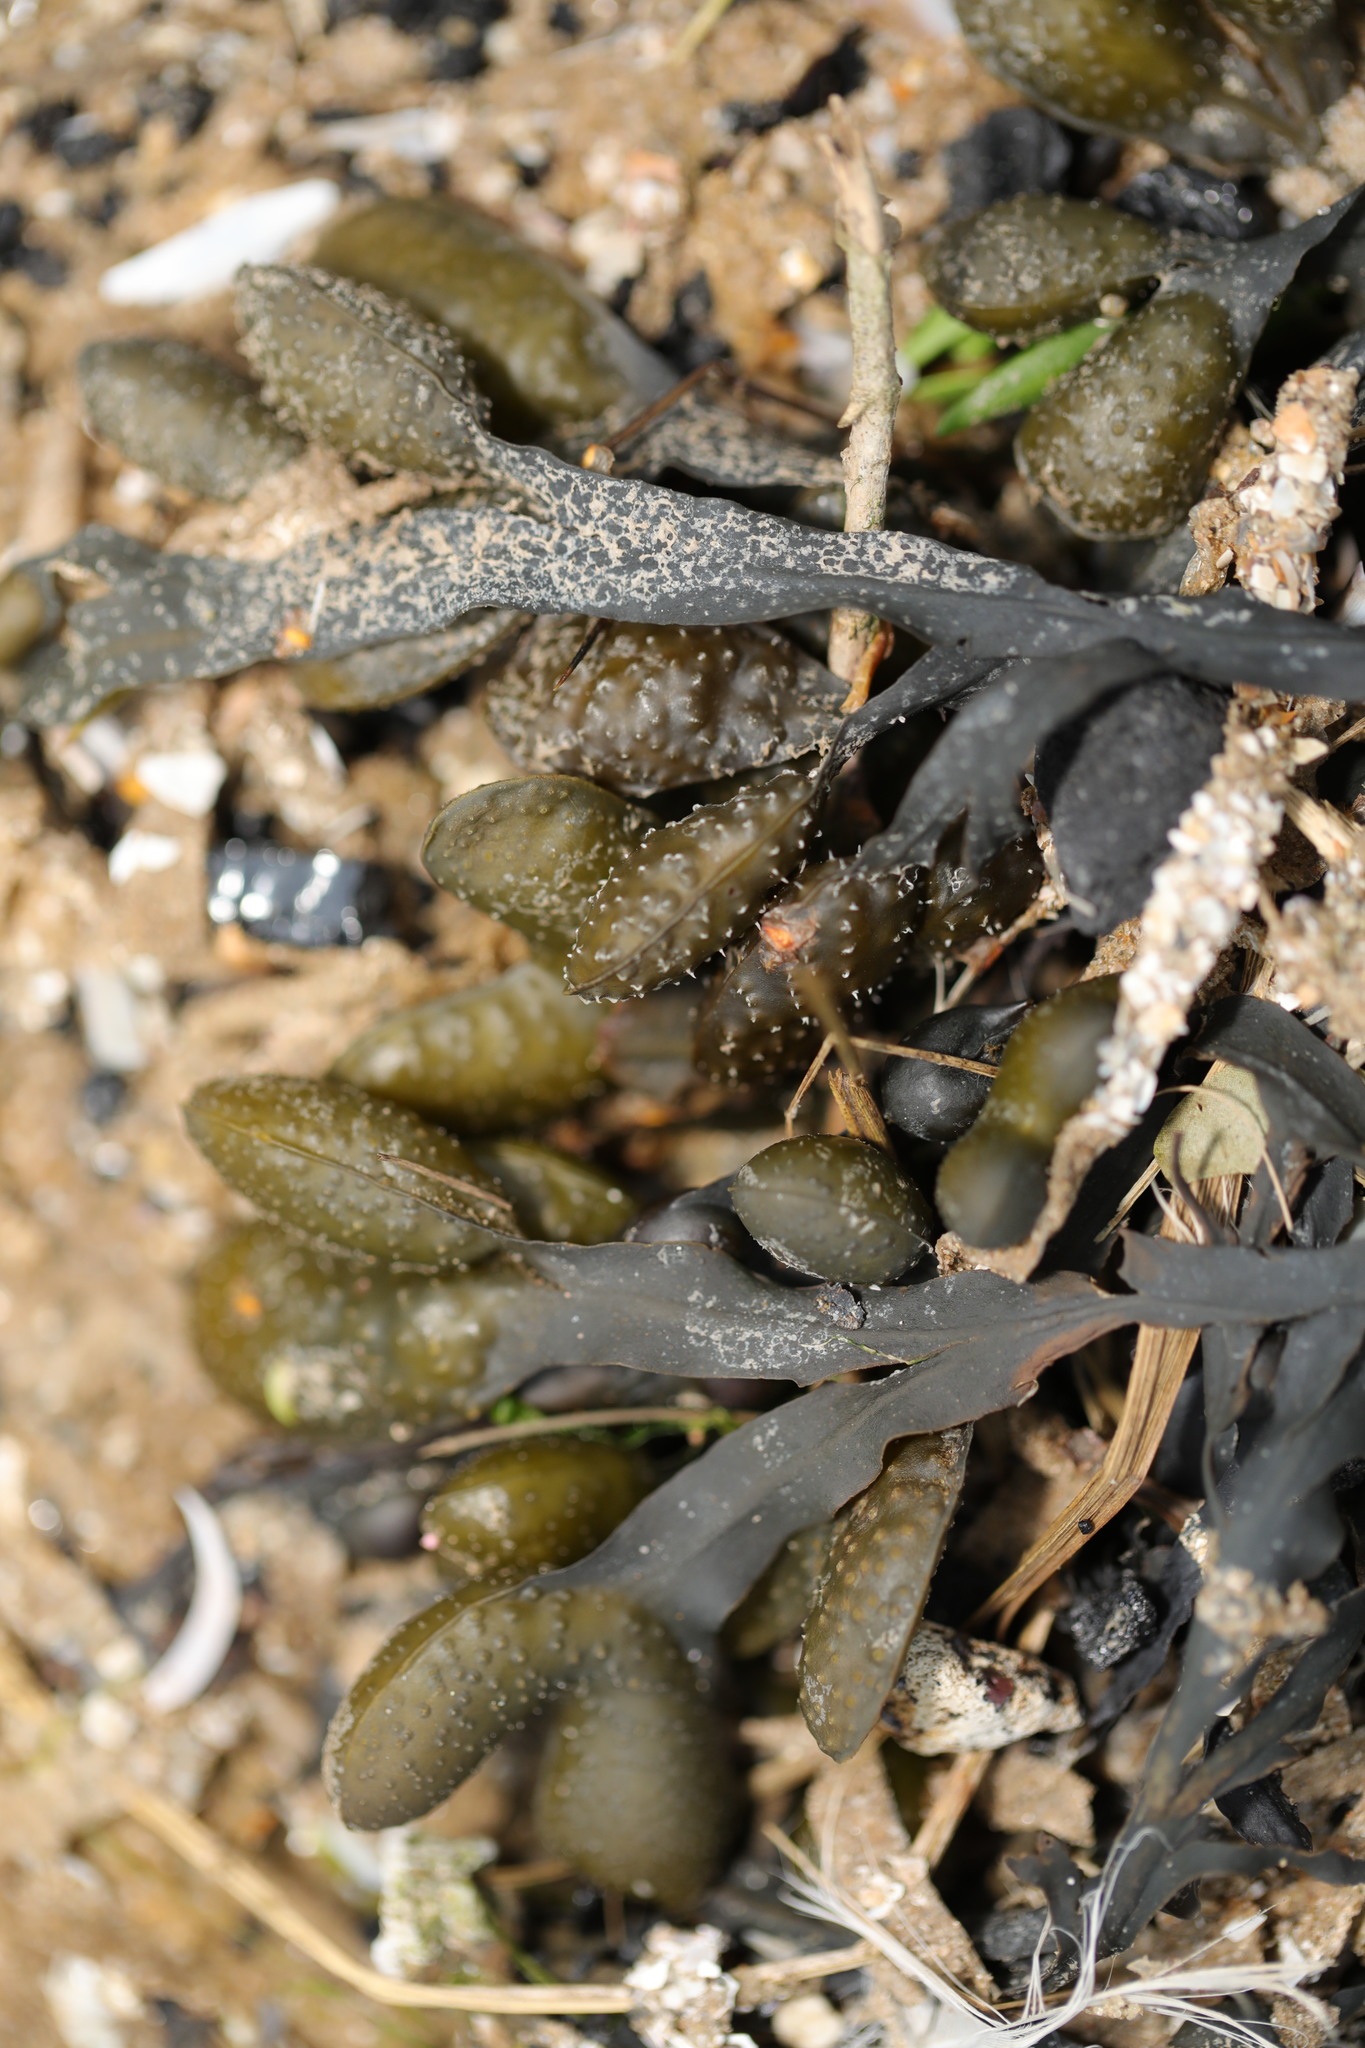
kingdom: Chromista
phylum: Ochrophyta
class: Phaeophyceae
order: Fucales
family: Fucaceae
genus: Fucus
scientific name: Fucus vesiculosus
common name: Bladder wrack
